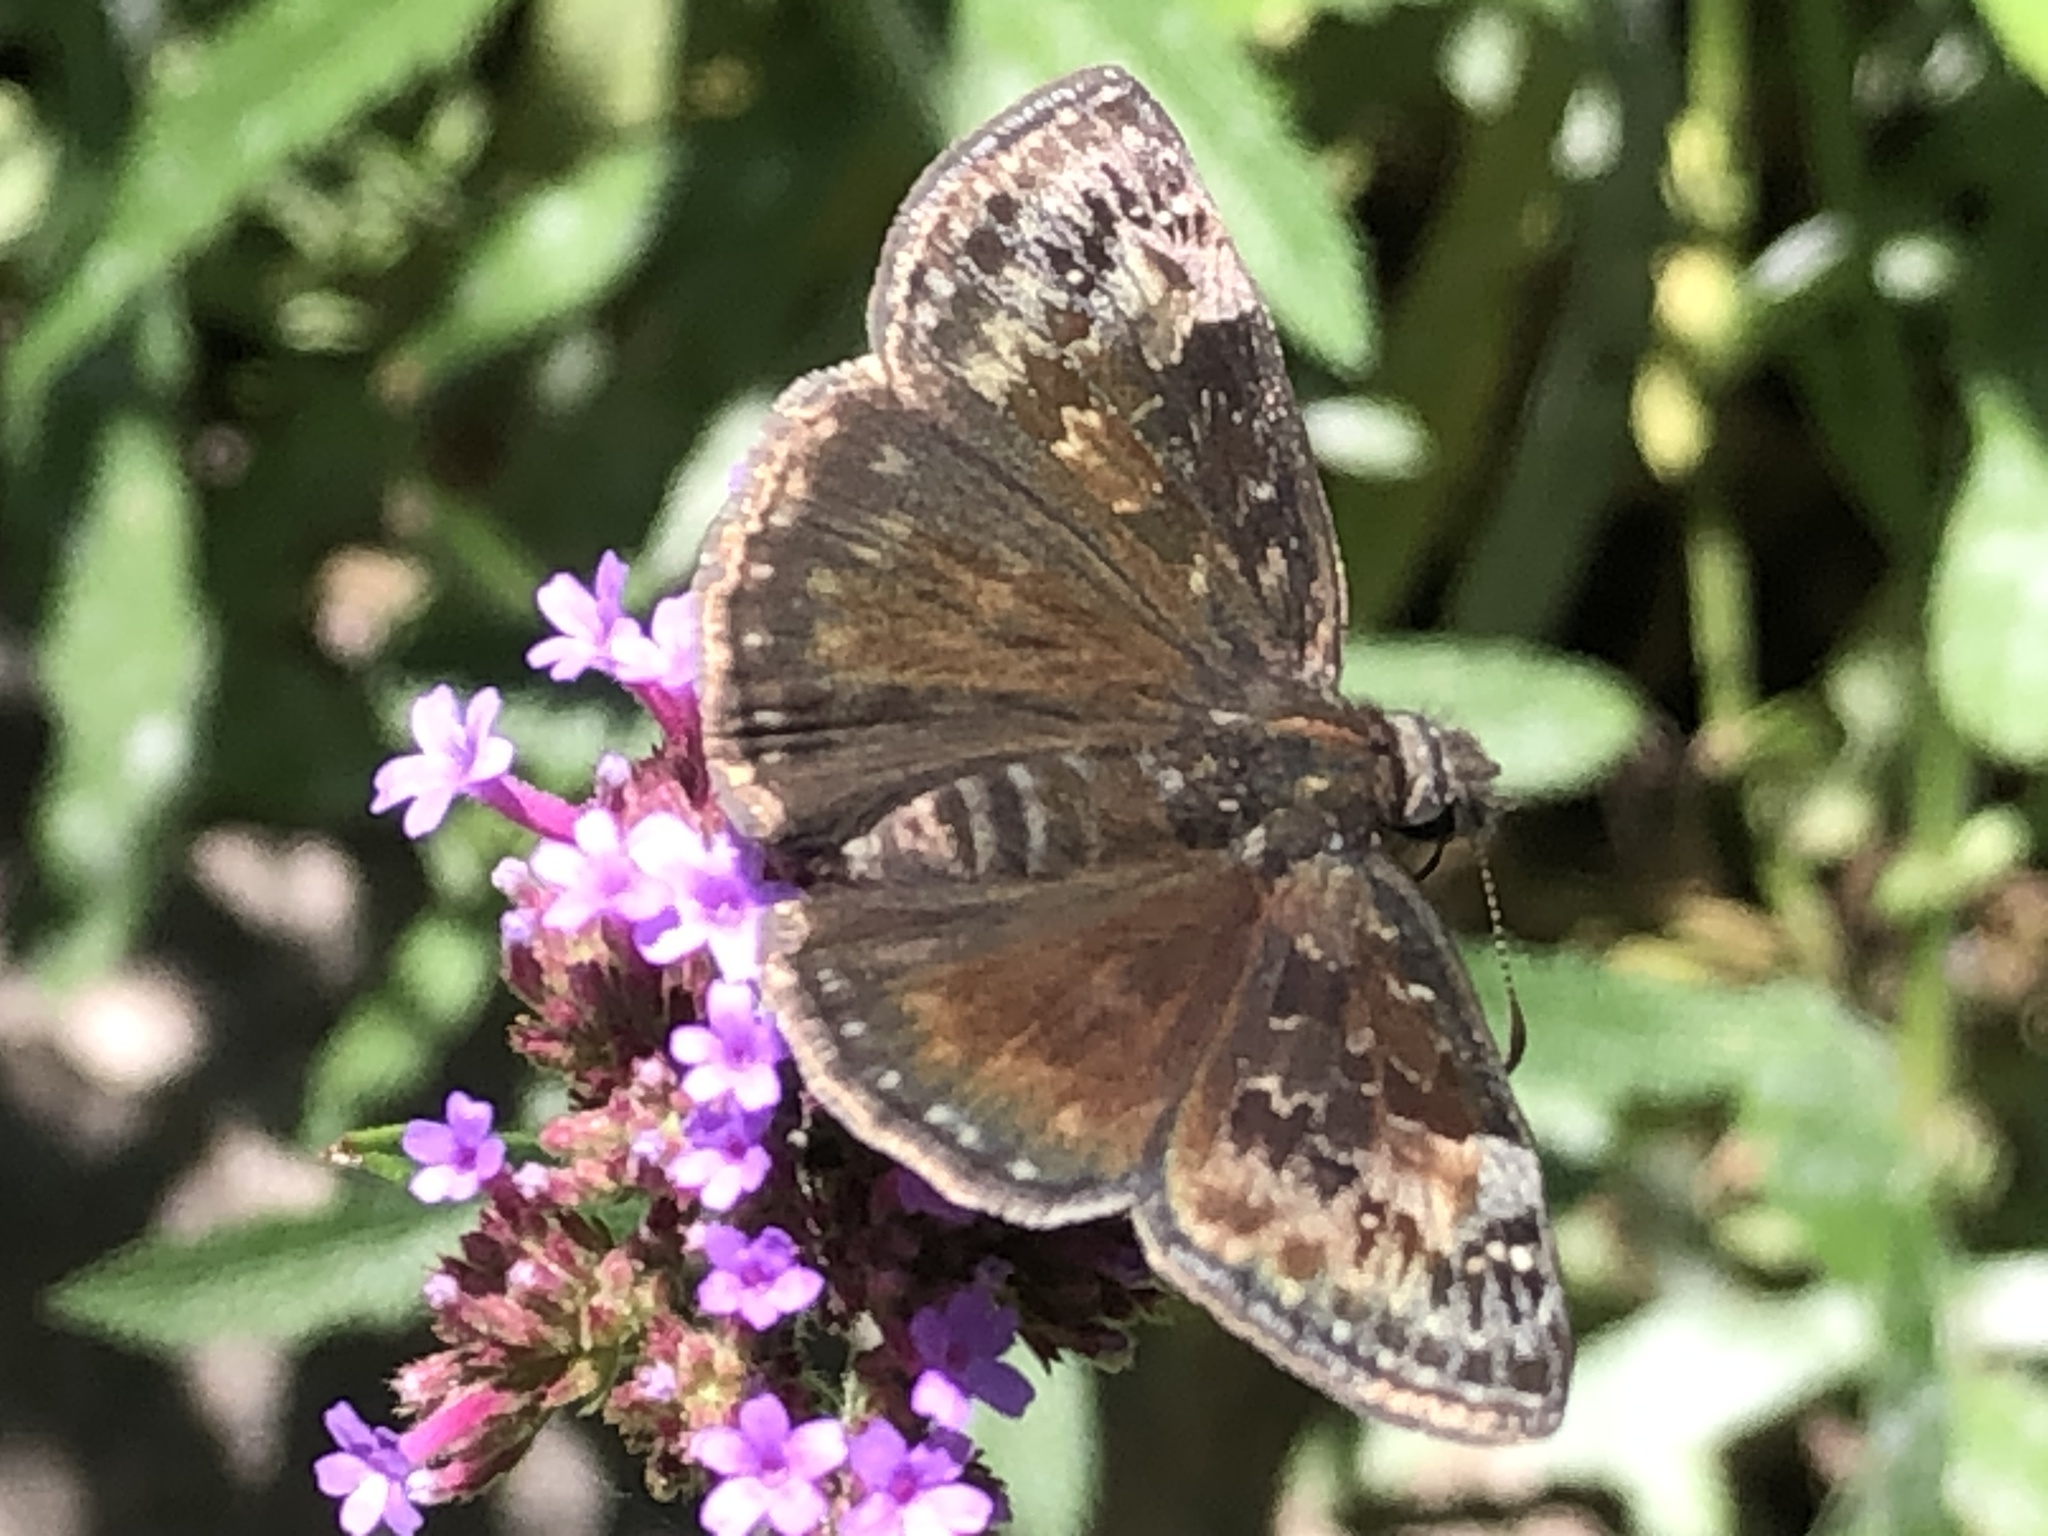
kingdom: Animalia
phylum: Arthropoda
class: Insecta
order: Lepidoptera
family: Hesperiidae
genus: Erynnis
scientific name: Erynnis baptisiae
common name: Wild indigo duskywing
